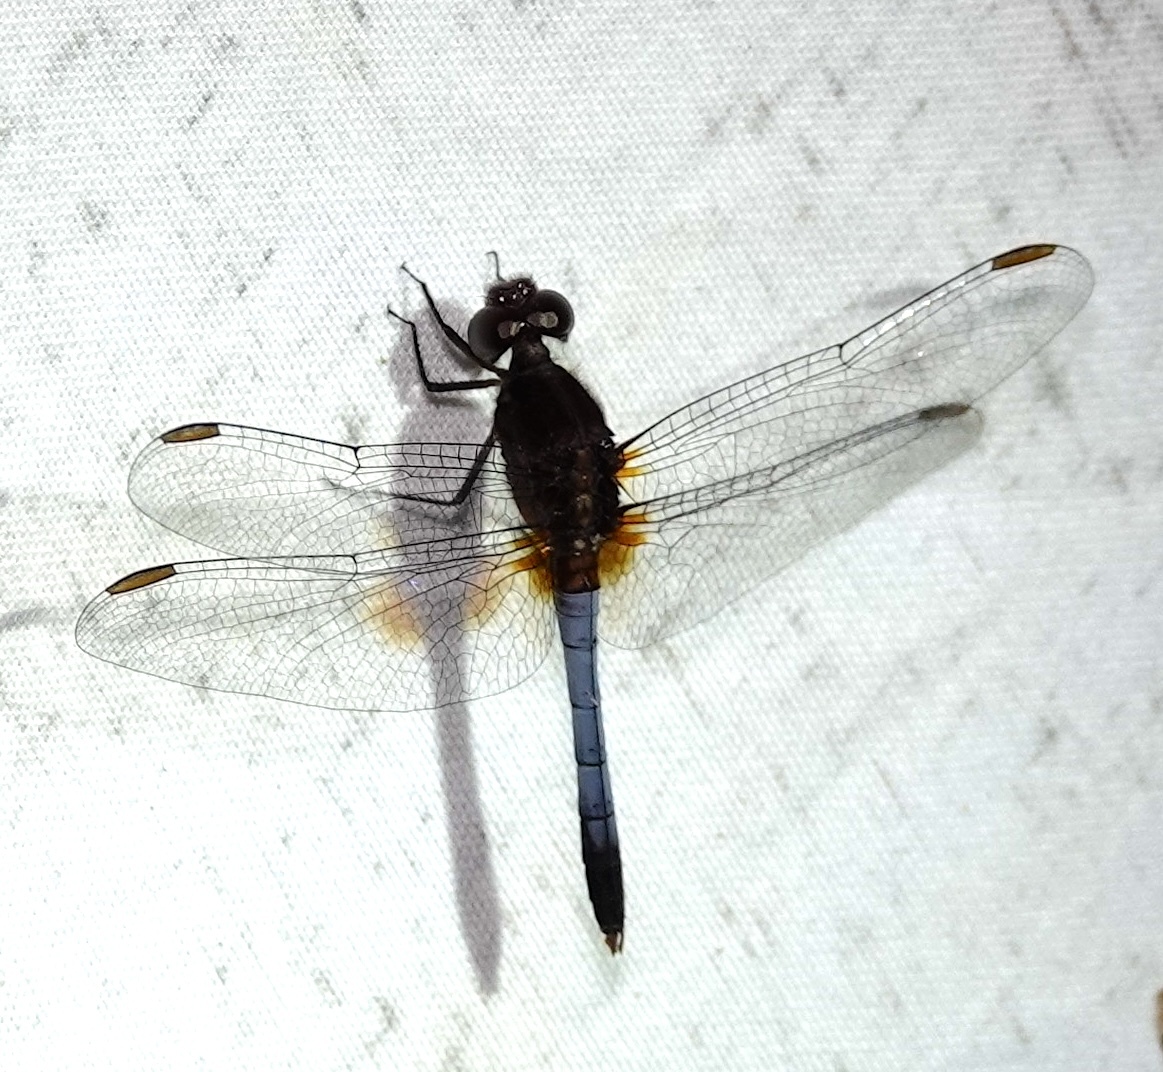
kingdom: Animalia
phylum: Arthropoda
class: Insecta
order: Odonata
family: Libellulidae
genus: Erythrodiplax
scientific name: Erythrodiplax abjecta
